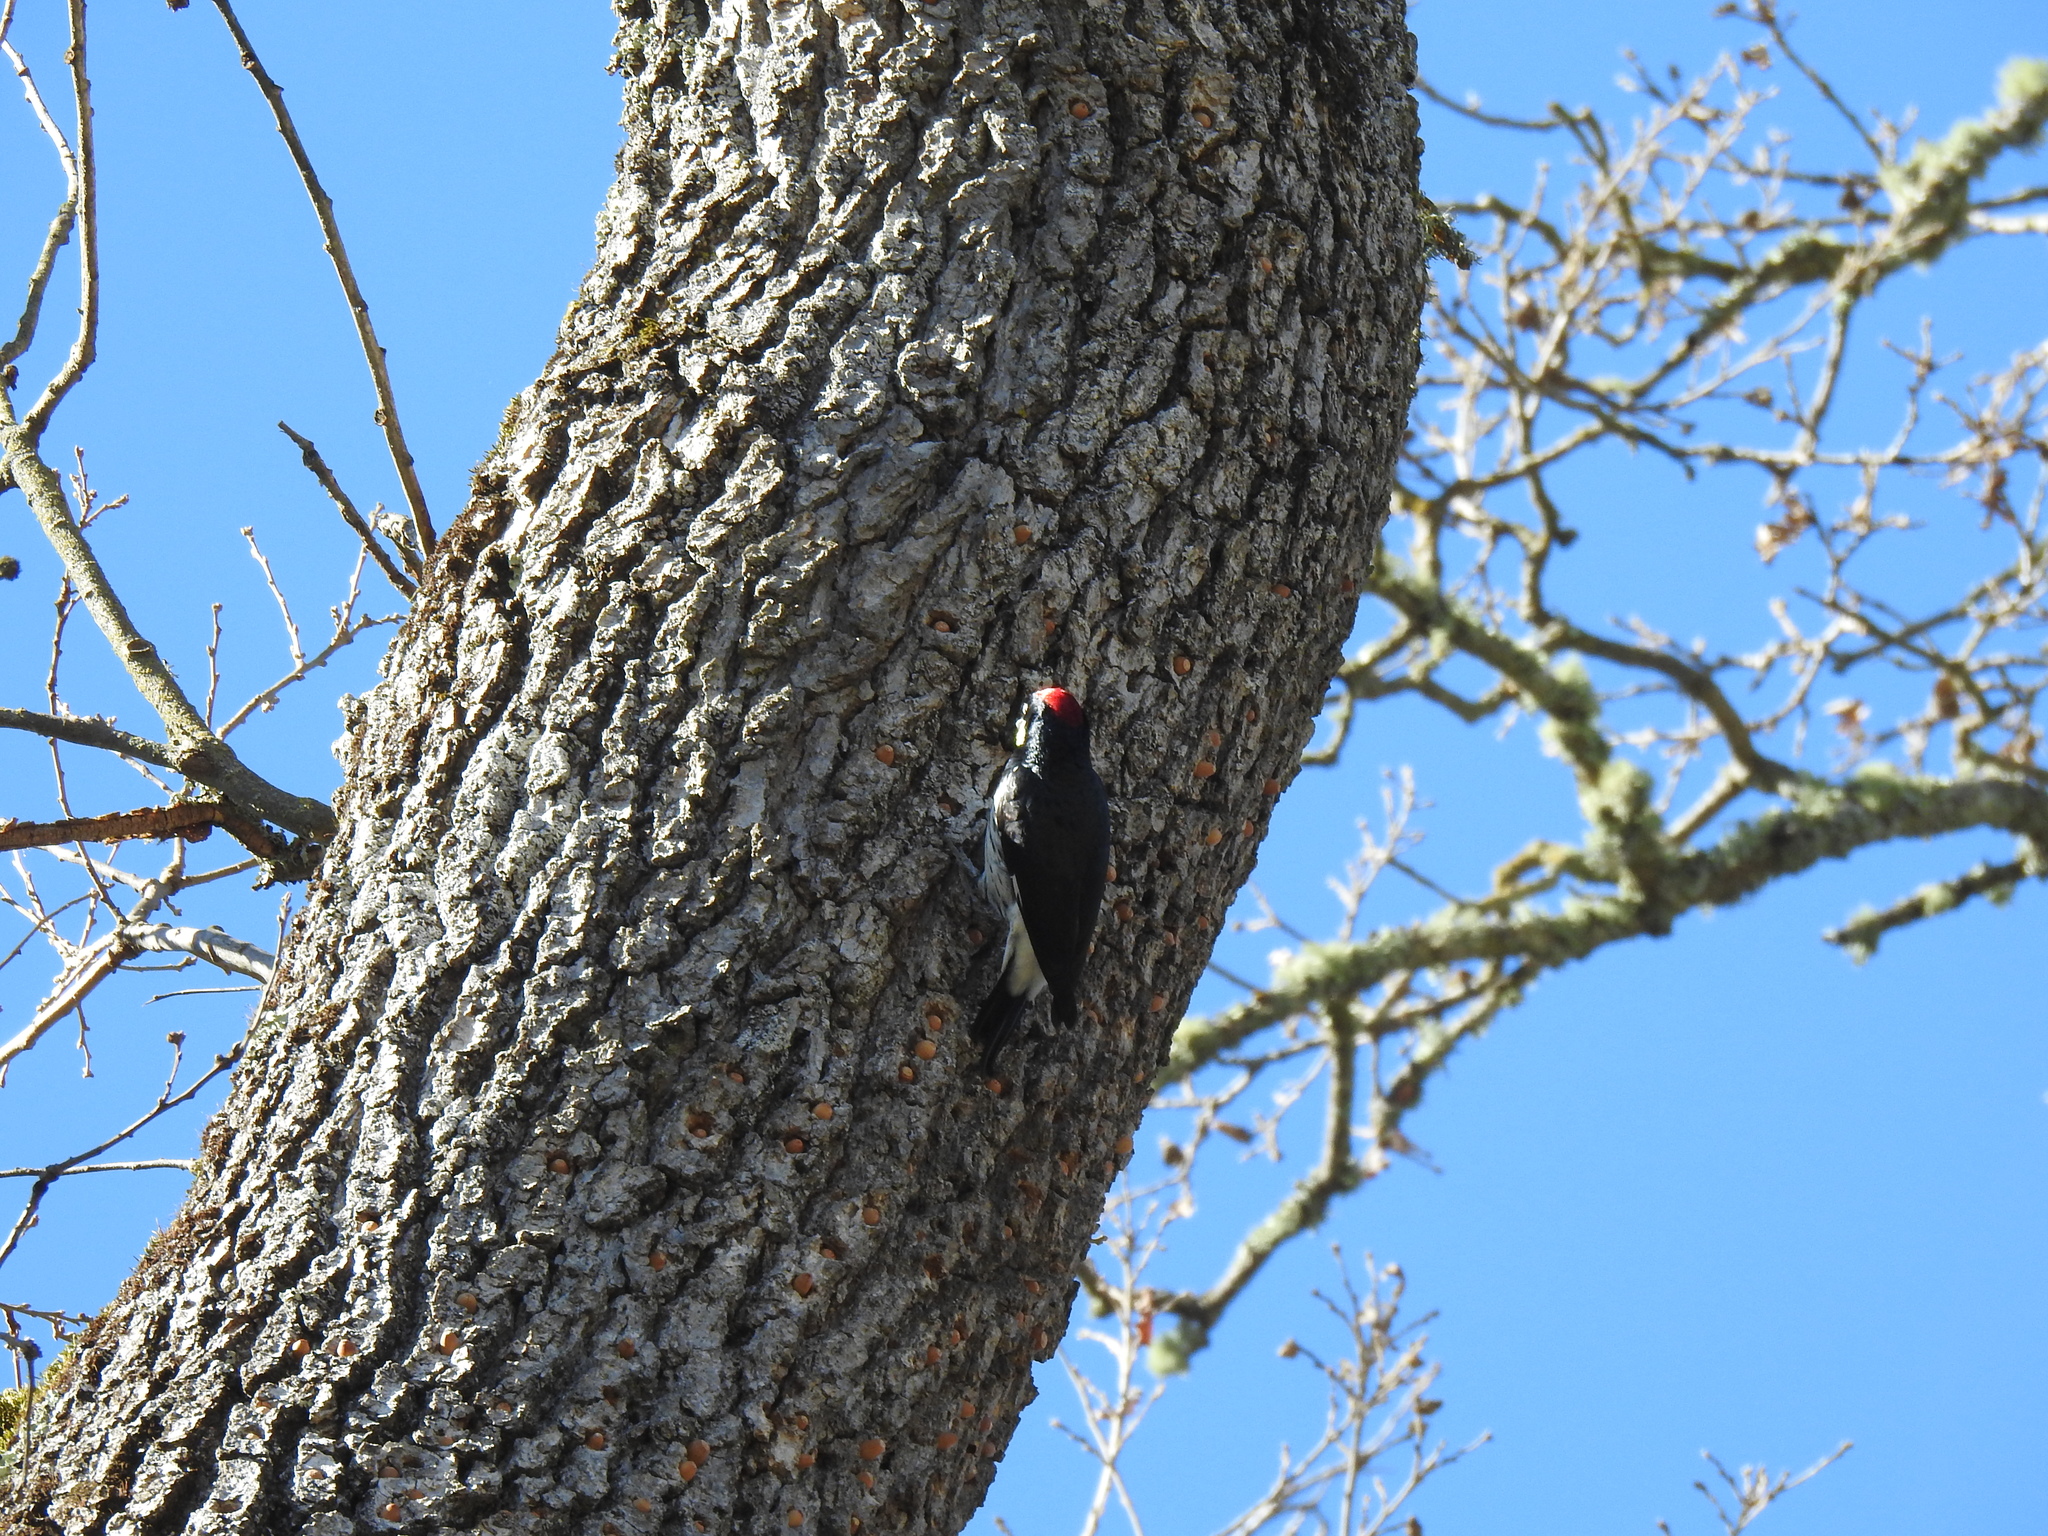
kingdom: Animalia
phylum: Chordata
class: Aves
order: Piciformes
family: Picidae
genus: Melanerpes
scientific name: Melanerpes formicivorus
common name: Acorn woodpecker
